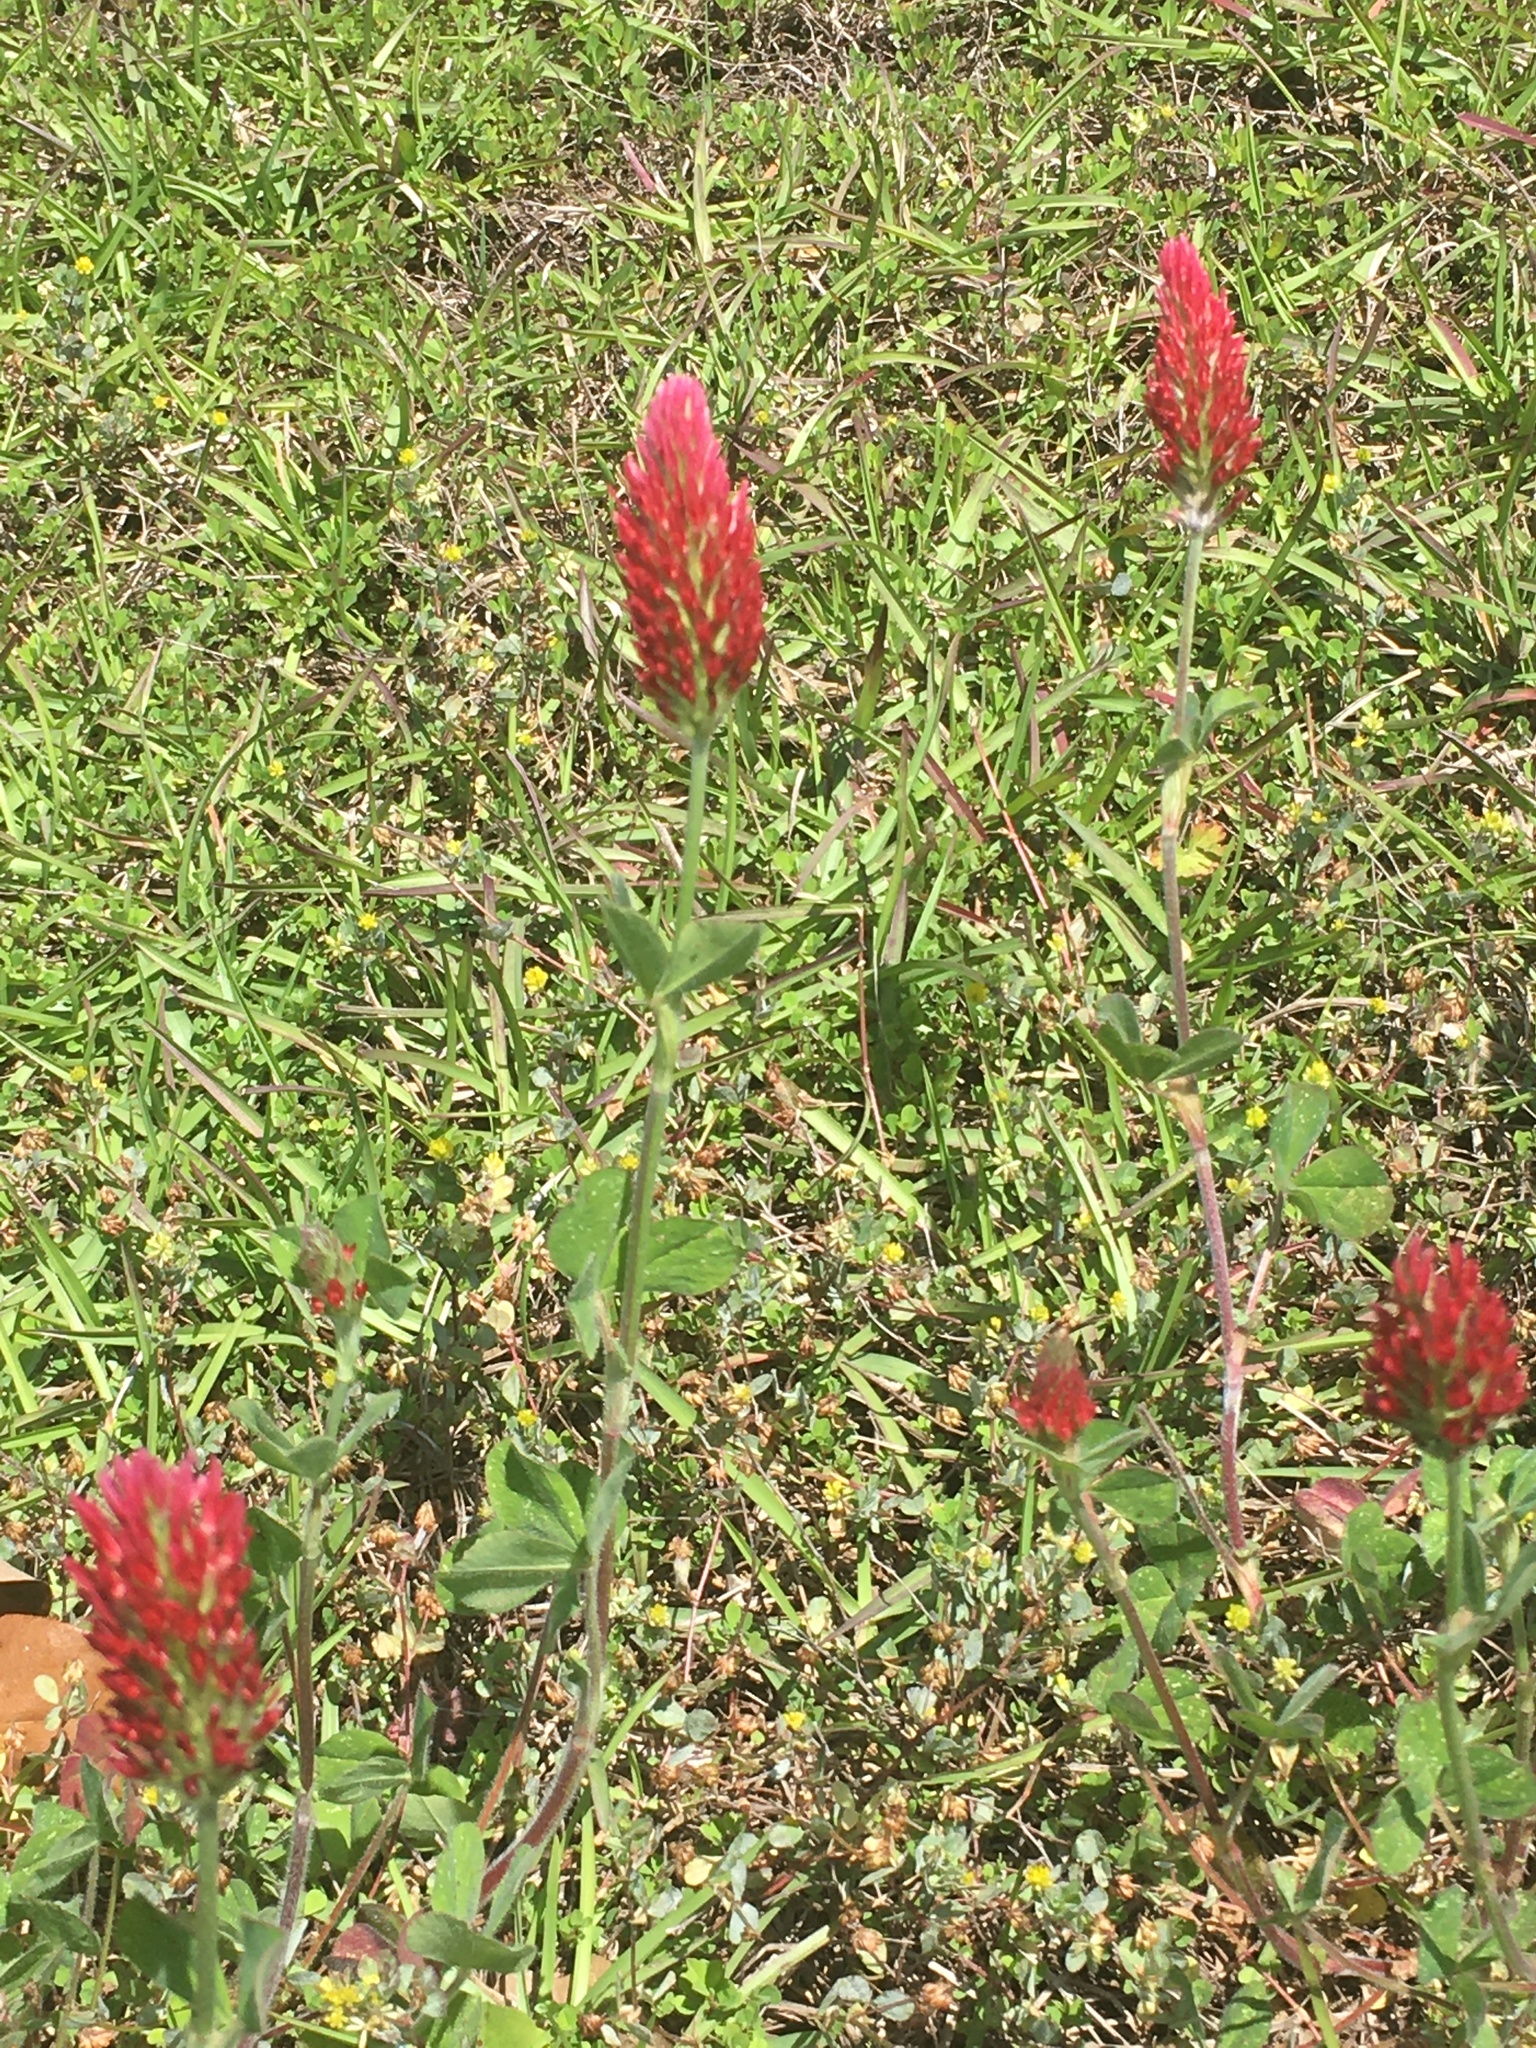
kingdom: Plantae
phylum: Tracheophyta
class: Magnoliopsida
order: Fabales
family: Fabaceae
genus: Trifolium
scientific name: Trifolium incarnatum
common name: Crimson clover
